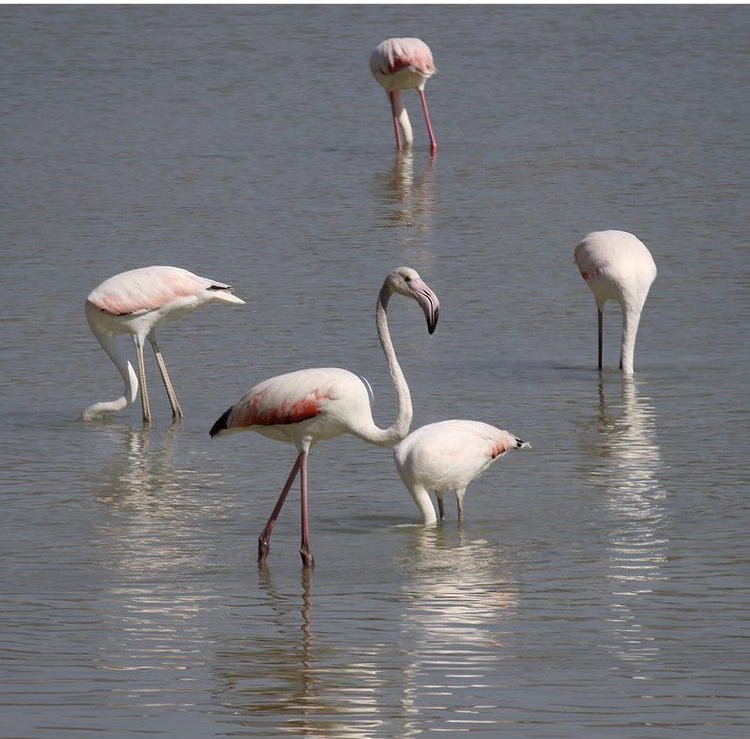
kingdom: Animalia
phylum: Chordata
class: Aves
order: Phoenicopteriformes
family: Phoenicopteridae
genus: Phoenicopterus
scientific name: Phoenicopterus roseus
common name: Greater flamingo
